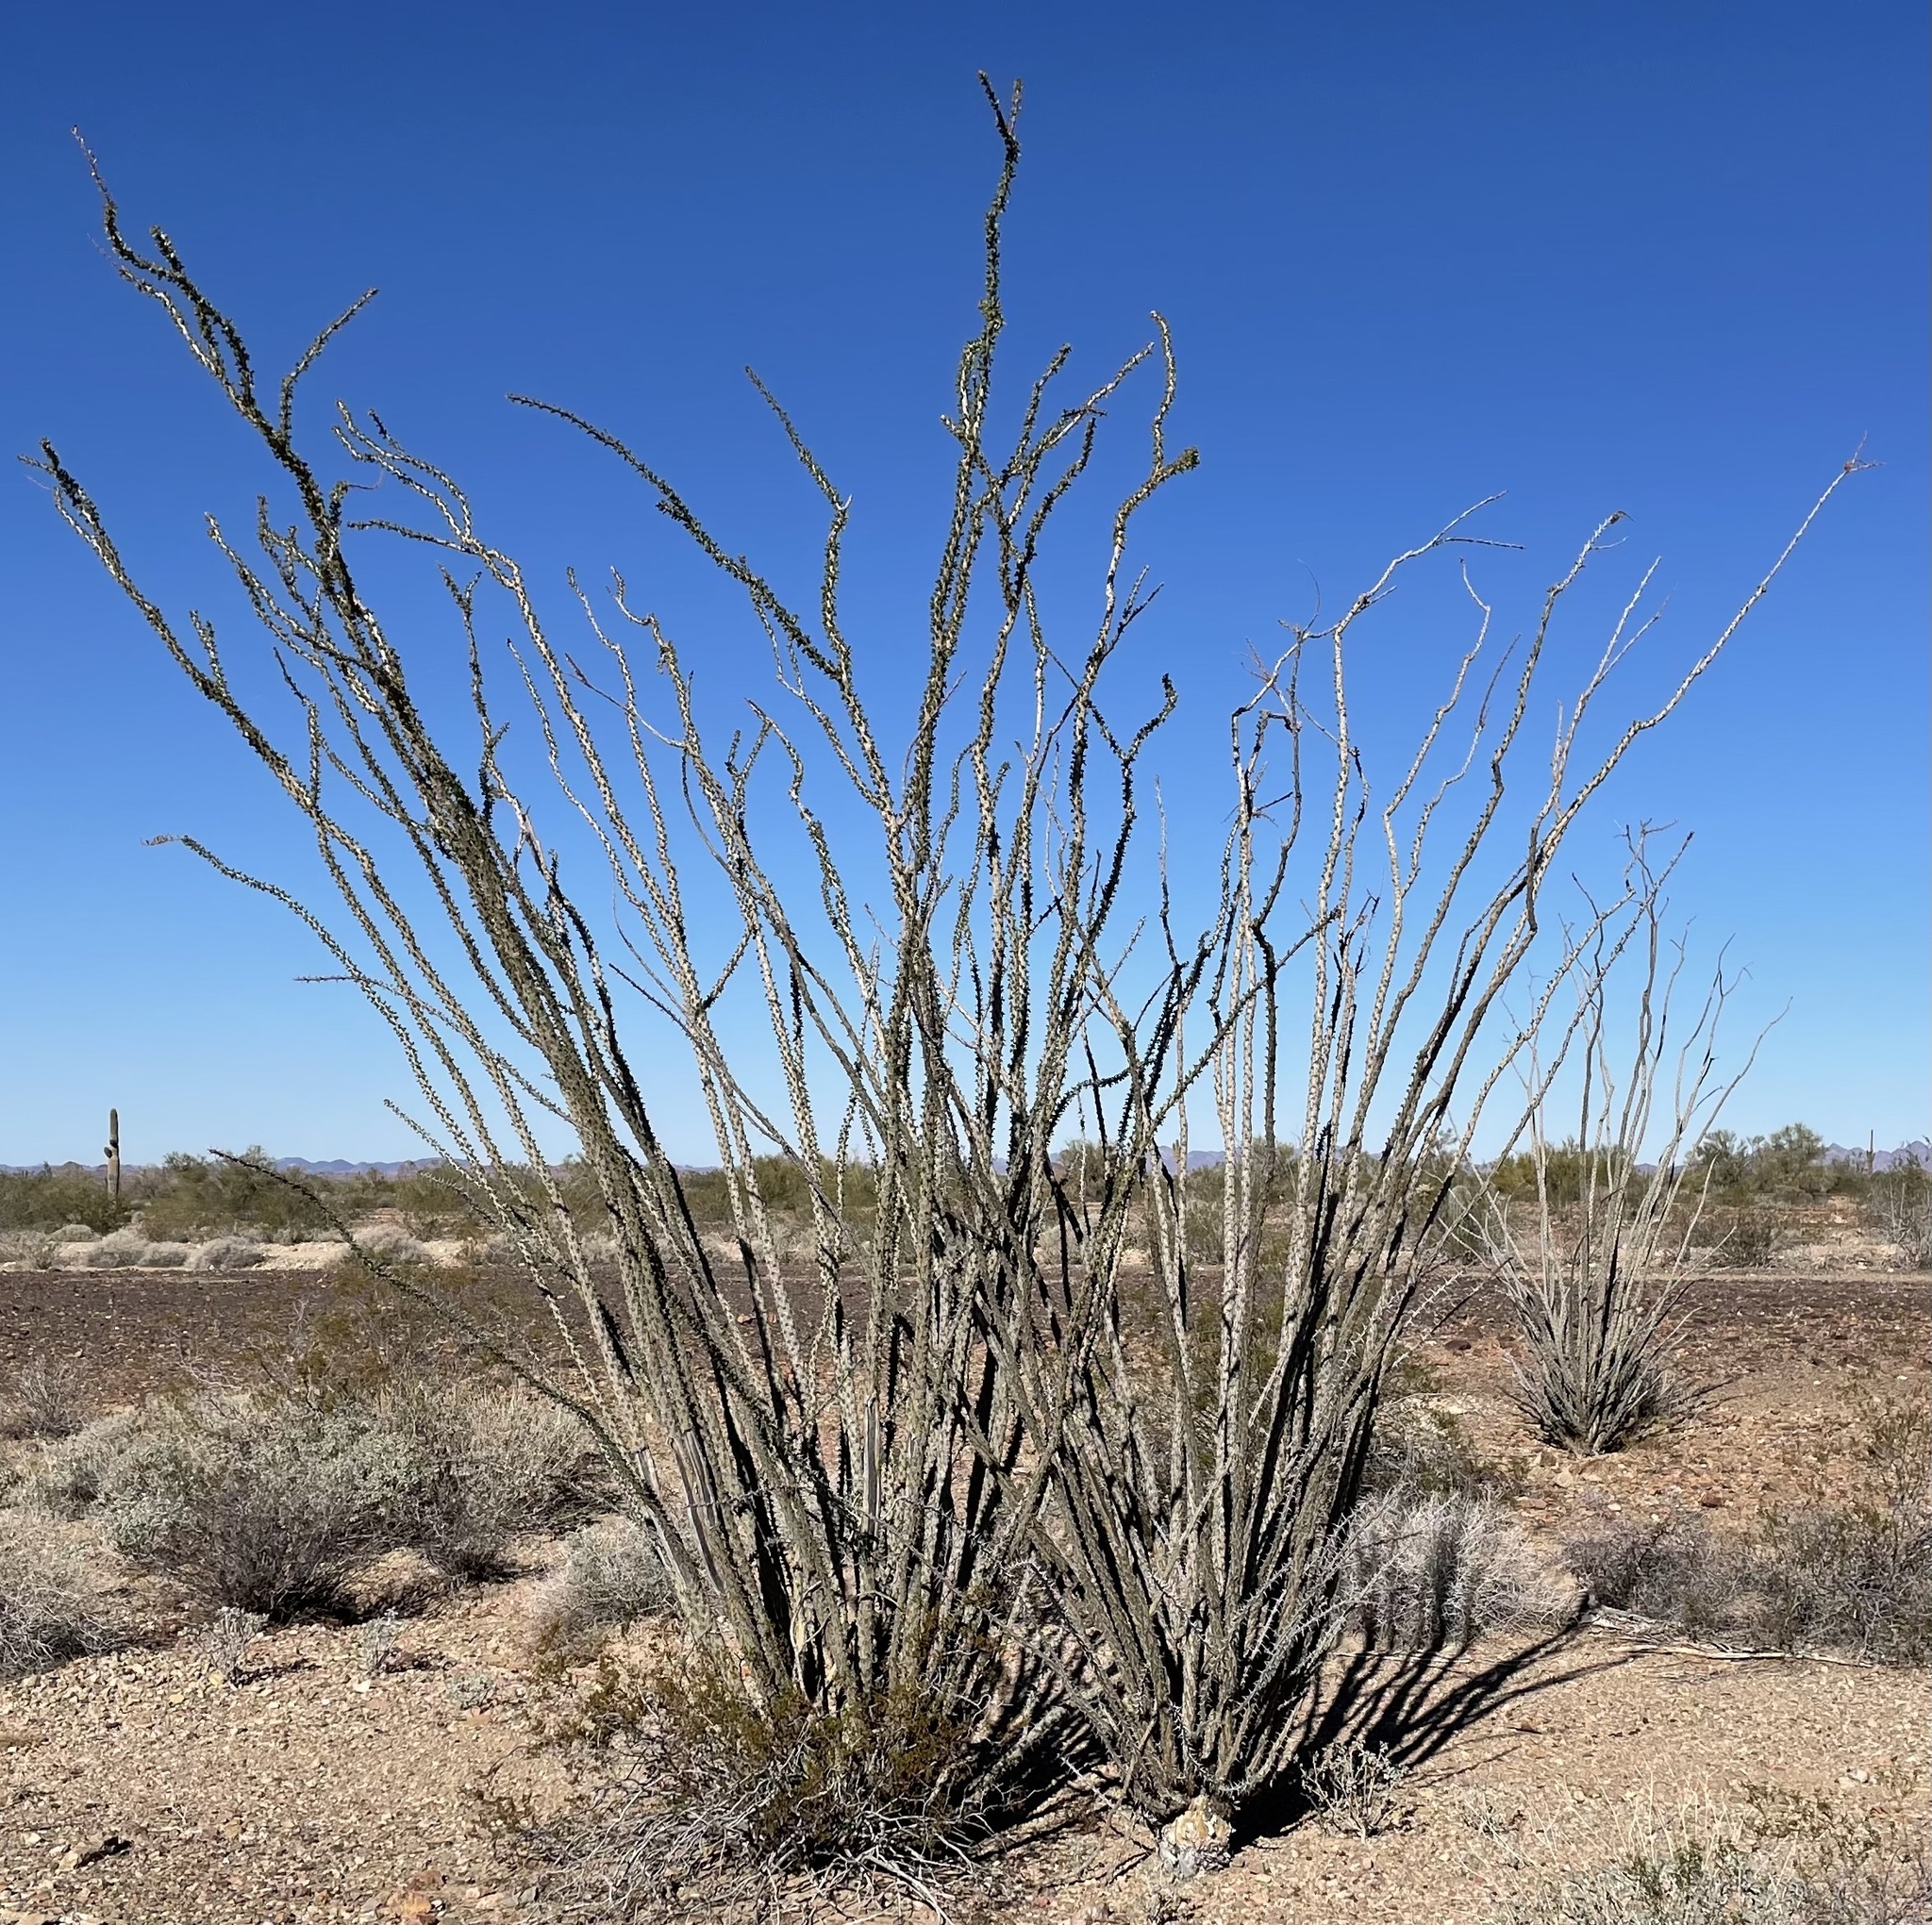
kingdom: Plantae
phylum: Tracheophyta
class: Magnoliopsida
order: Ericales
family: Fouquieriaceae
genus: Fouquieria
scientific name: Fouquieria splendens
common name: Vine-cactus
